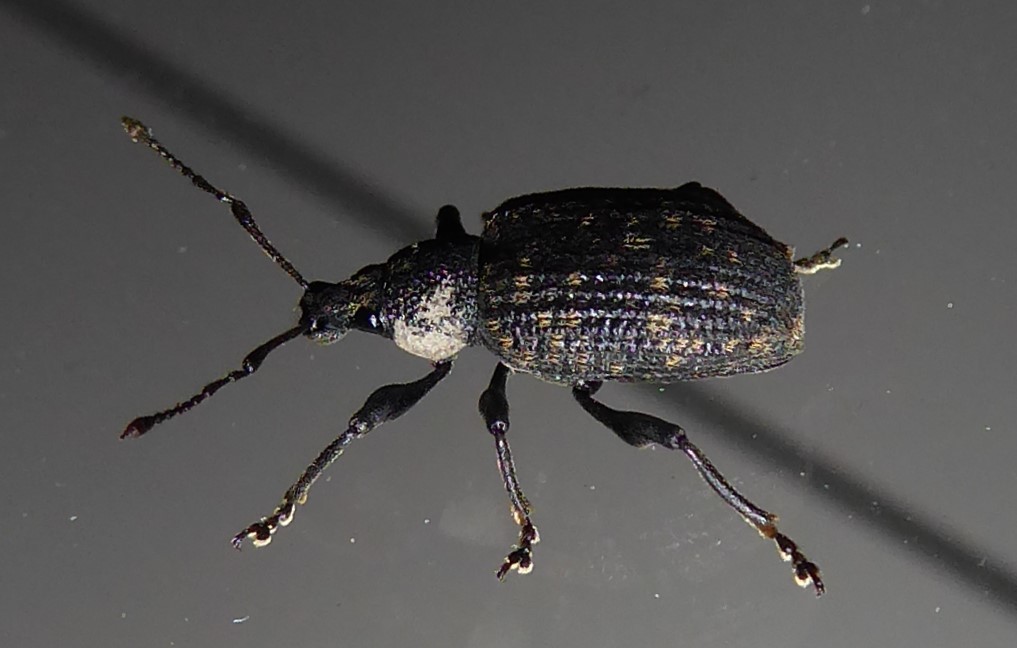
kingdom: Animalia
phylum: Arthropoda
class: Insecta
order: Coleoptera
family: Curculionidae
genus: Otiorhynchus
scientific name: Otiorhynchus sulcatus
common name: Black vine weevil
